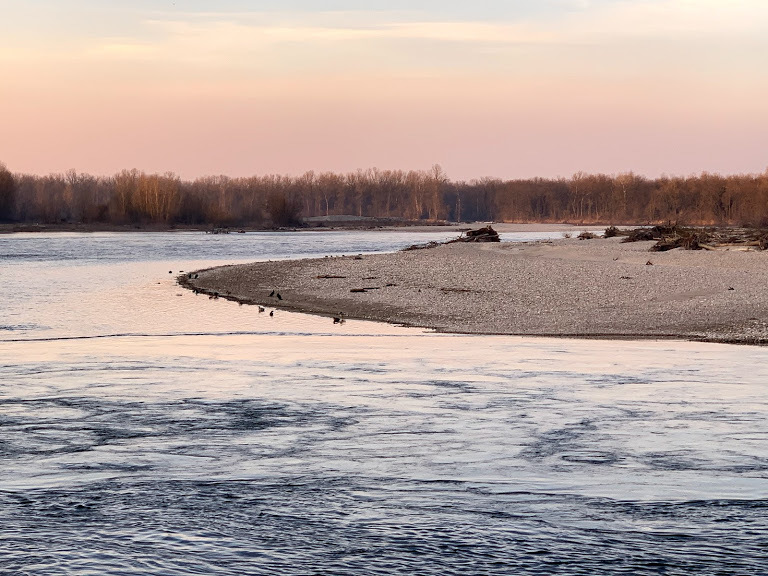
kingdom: Animalia
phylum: Chordata
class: Aves
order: Suliformes
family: Phalacrocoracidae
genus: Phalacrocorax
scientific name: Phalacrocorax carbo
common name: Great cormorant
